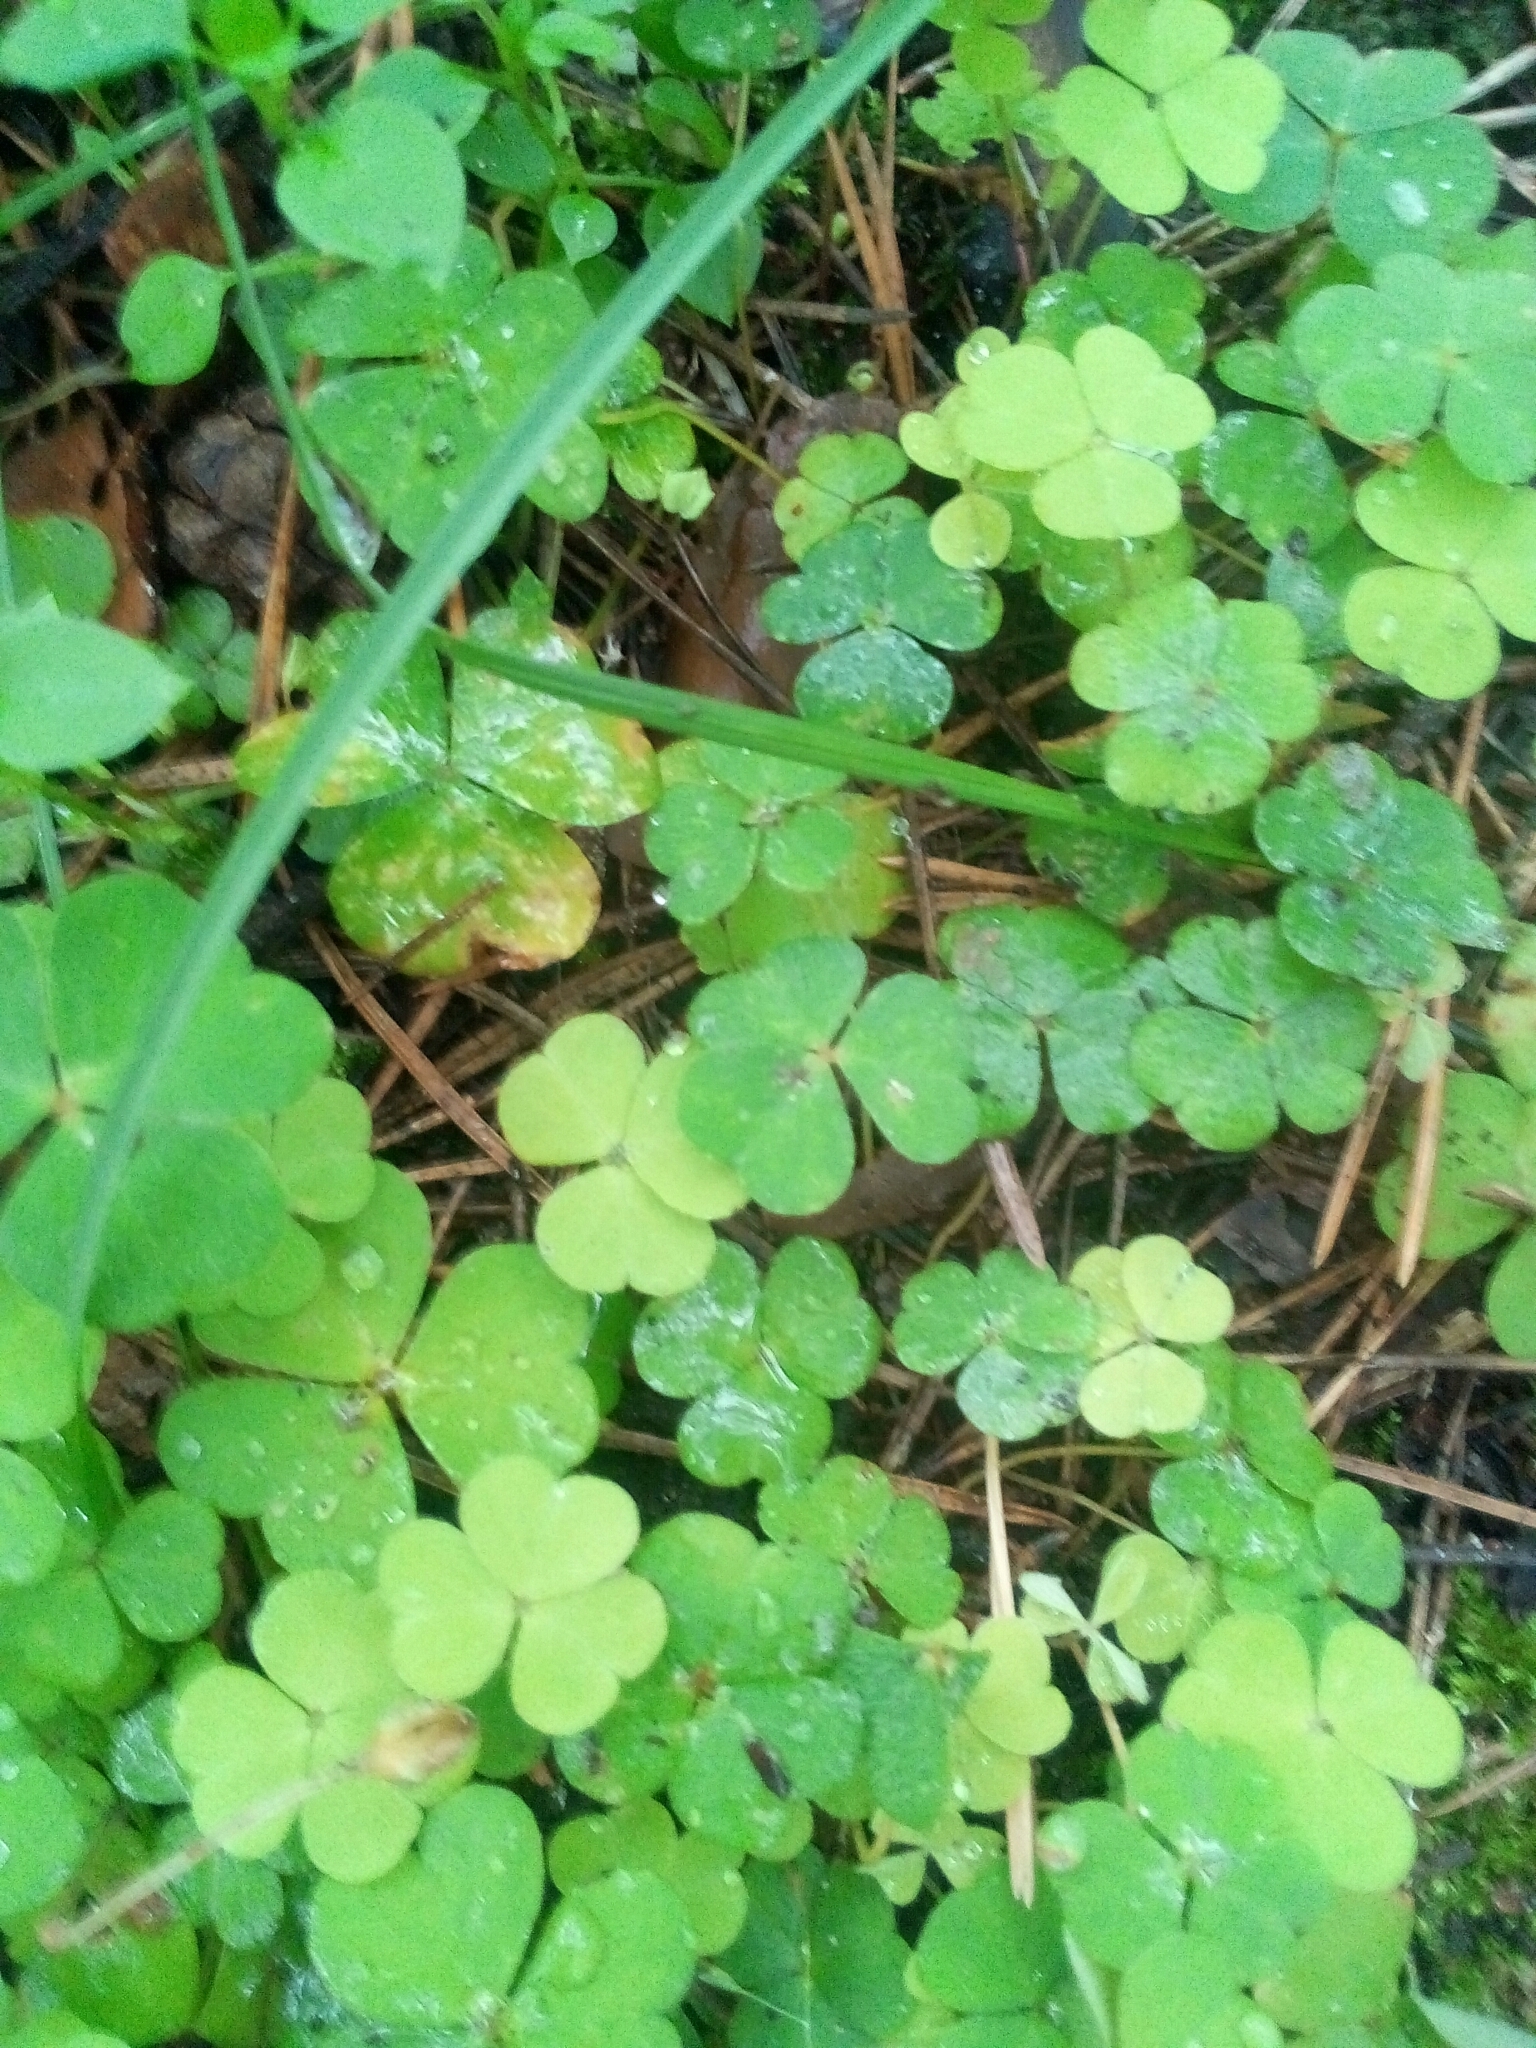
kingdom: Plantae
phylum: Tracheophyta
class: Magnoliopsida
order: Oxalidales
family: Oxalidaceae
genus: Oxalis
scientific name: Oxalis acetosella
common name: Wood-sorrel
